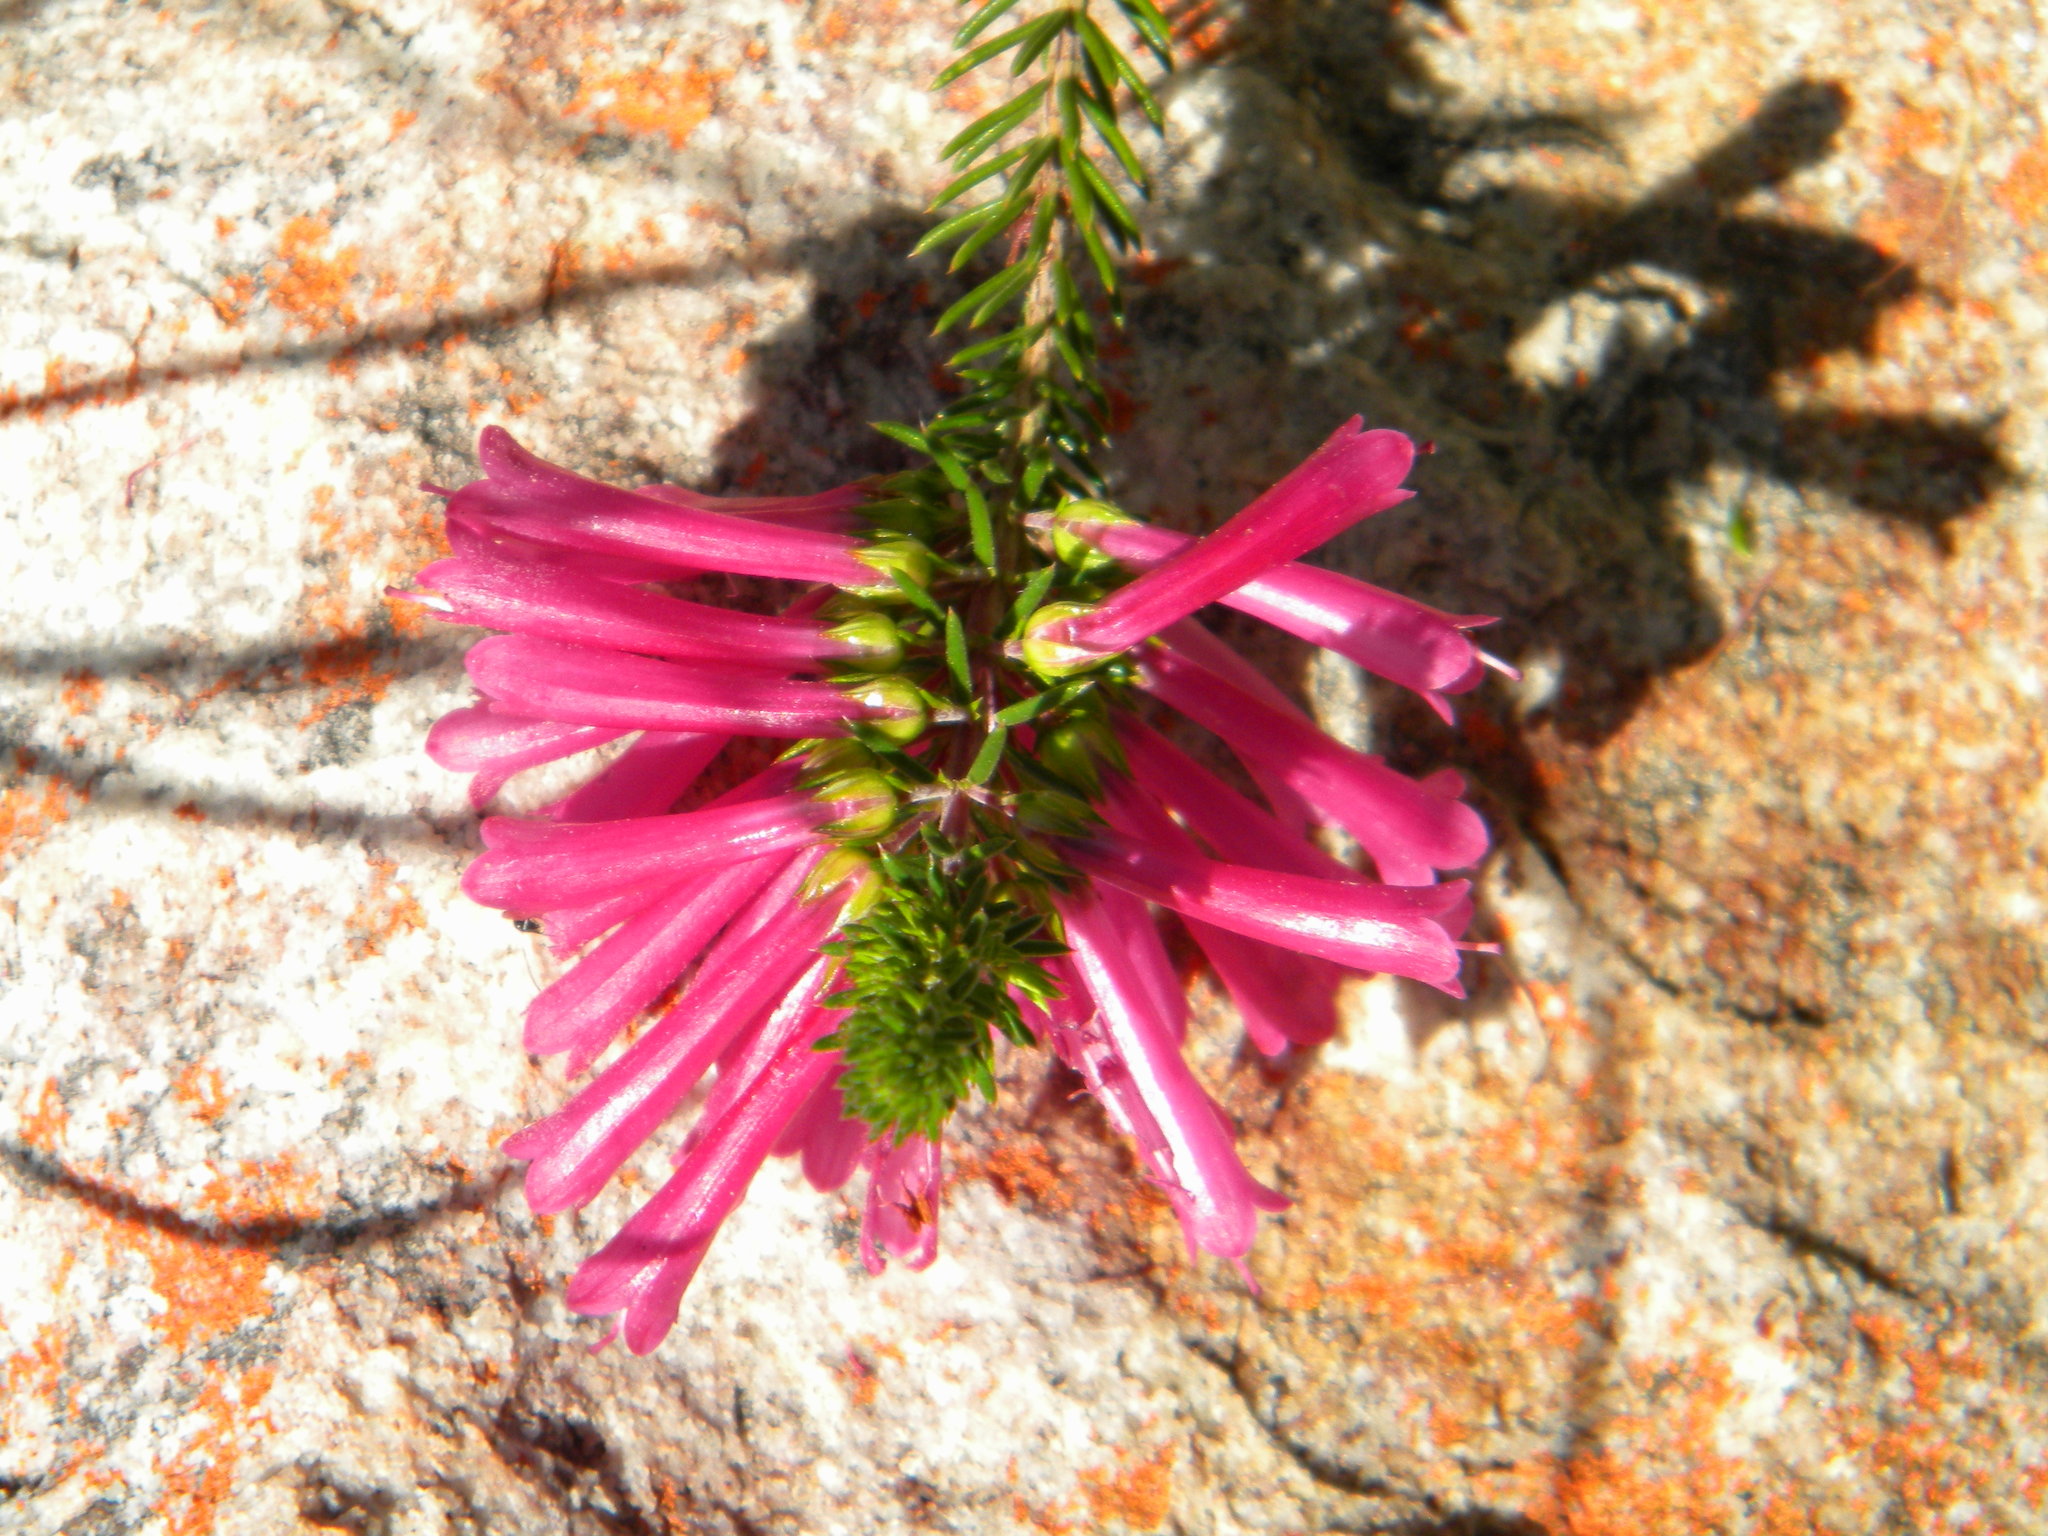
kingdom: Plantae
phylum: Tracheophyta
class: Magnoliopsida
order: Ericales
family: Ericaceae
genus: Erica
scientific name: Erica abietina
